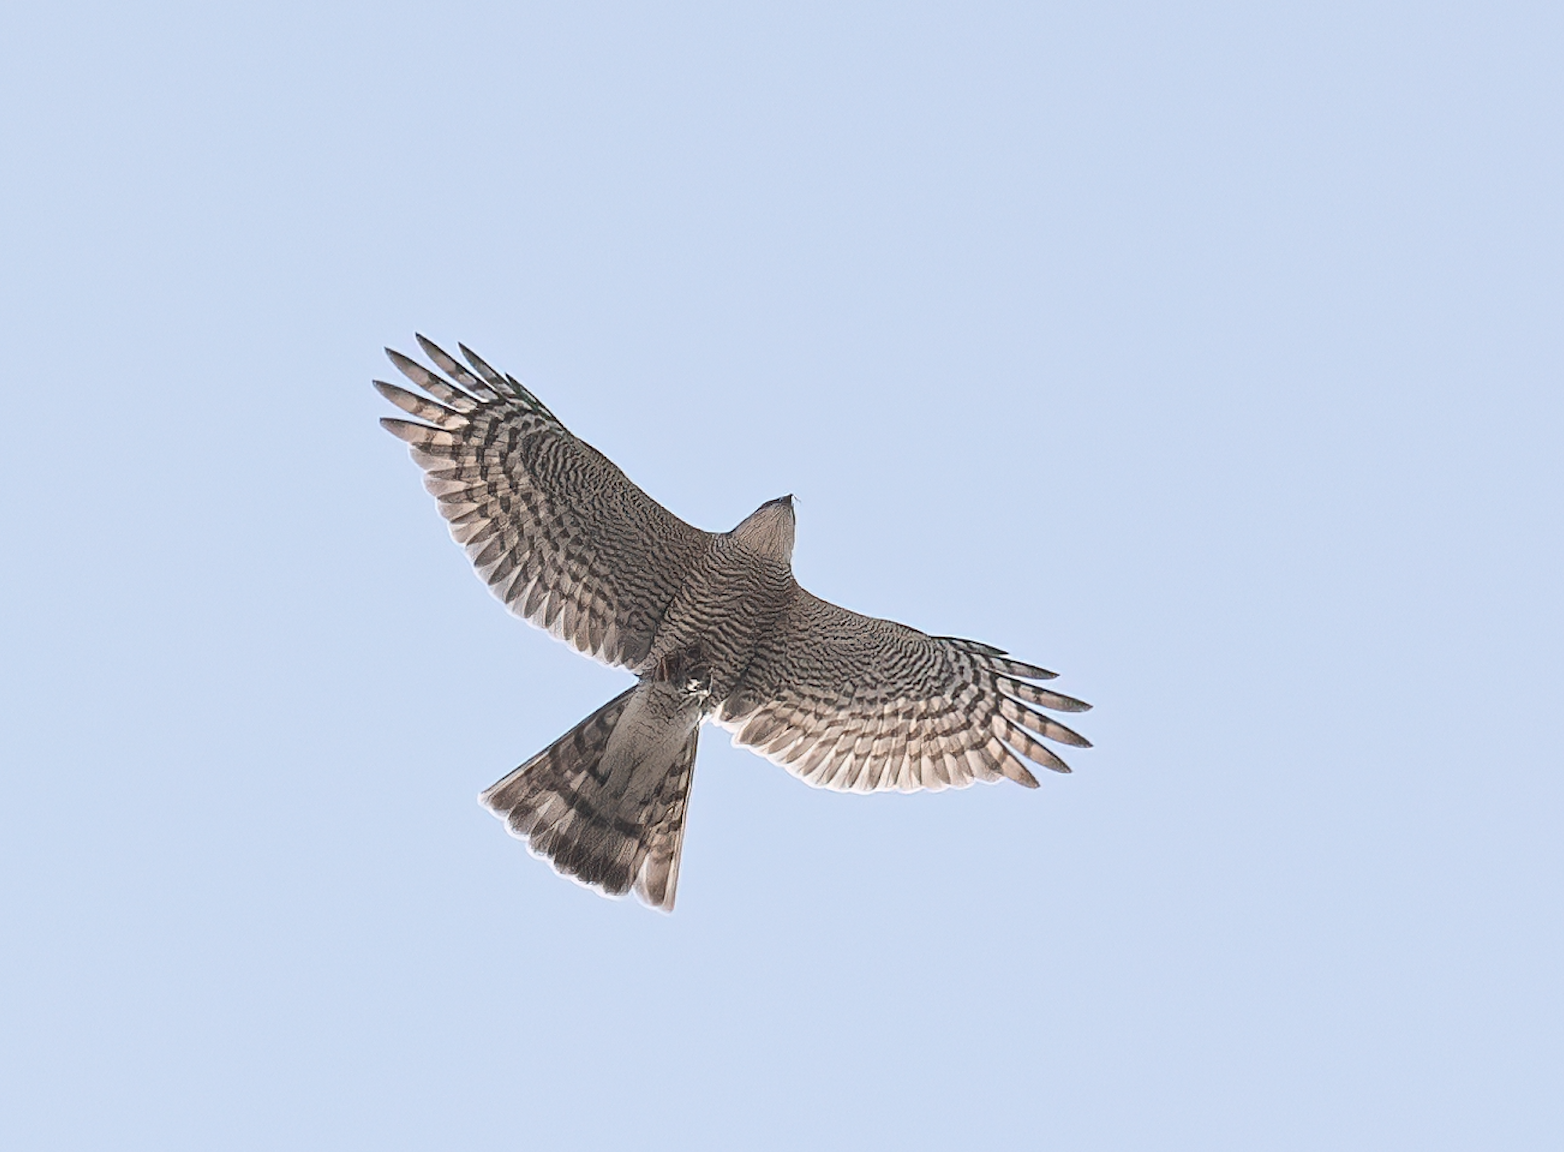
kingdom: Animalia
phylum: Chordata
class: Aves
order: Accipitriformes
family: Accipitridae
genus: Accipiter
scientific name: Accipiter nisus
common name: Eurasian sparrowhawk
